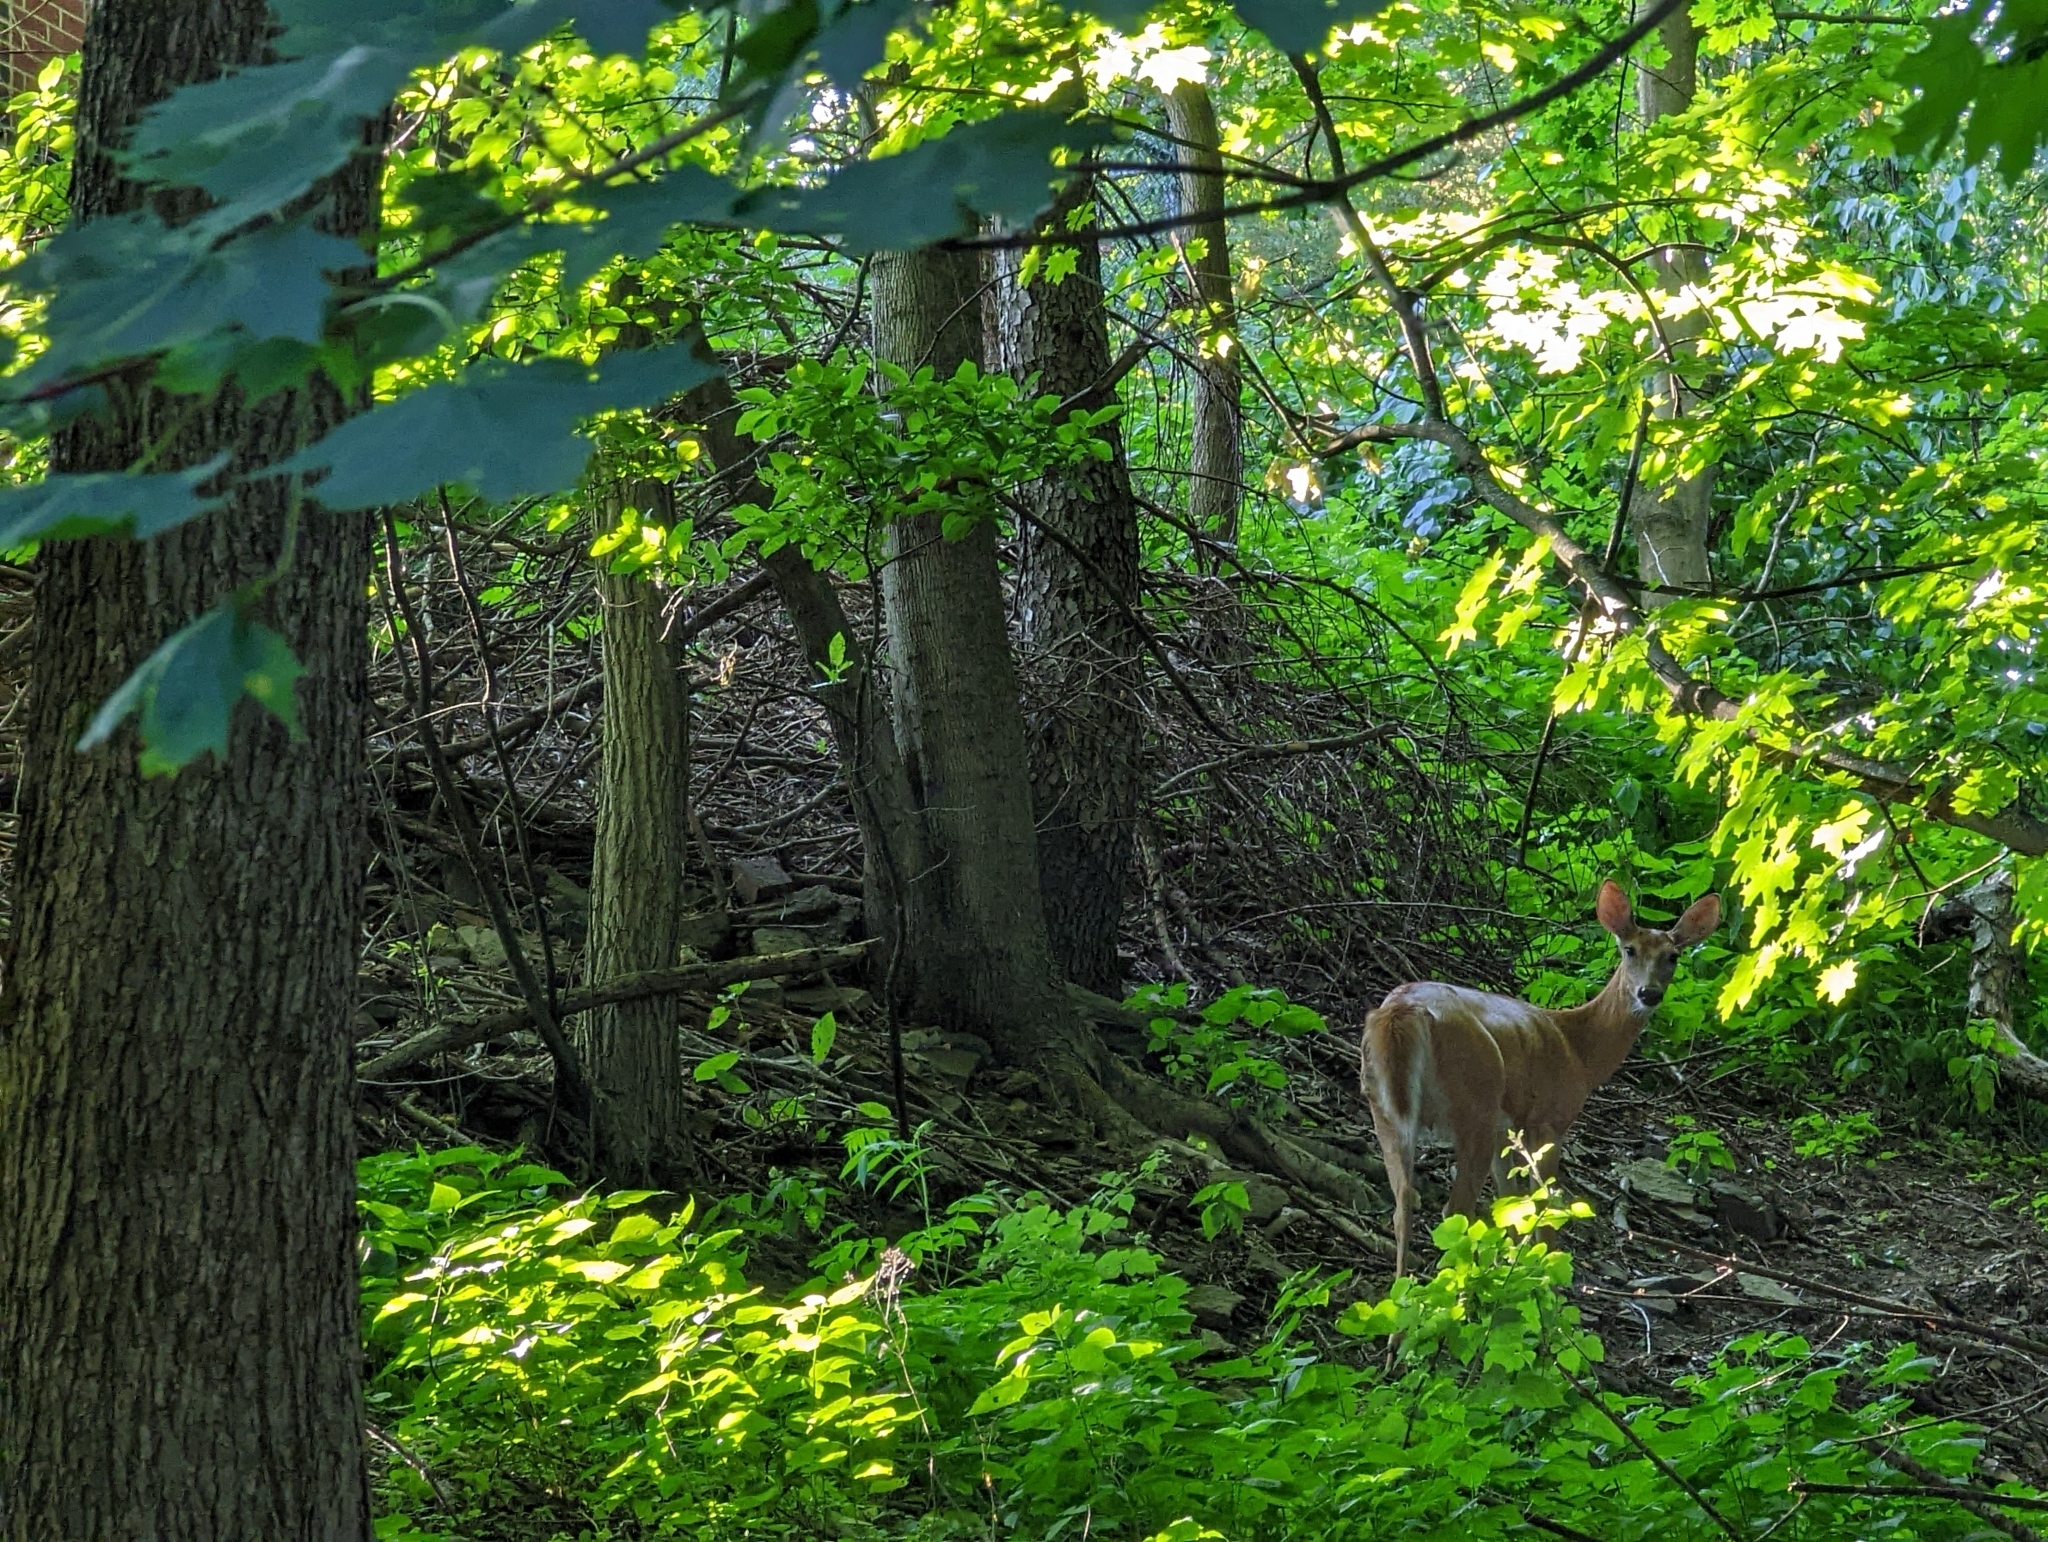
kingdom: Animalia
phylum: Chordata
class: Mammalia
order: Artiodactyla
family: Cervidae
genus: Odocoileus
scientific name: Odocoileus virginianus
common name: White-tailed deer
